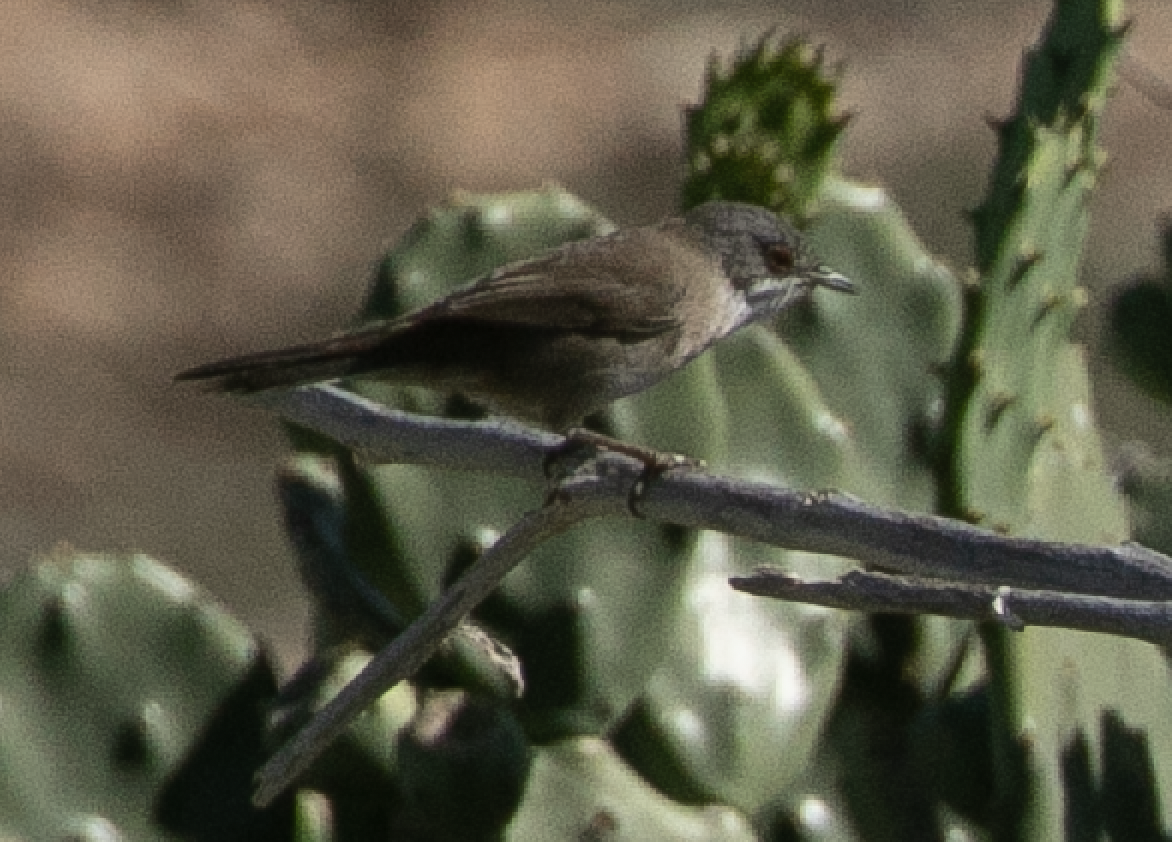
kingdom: Animalia
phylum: Chordata
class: Aves
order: Passeriformes
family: Sylviidae
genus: Curruca
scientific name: Curruca melanocephala
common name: Sardinian warbler
